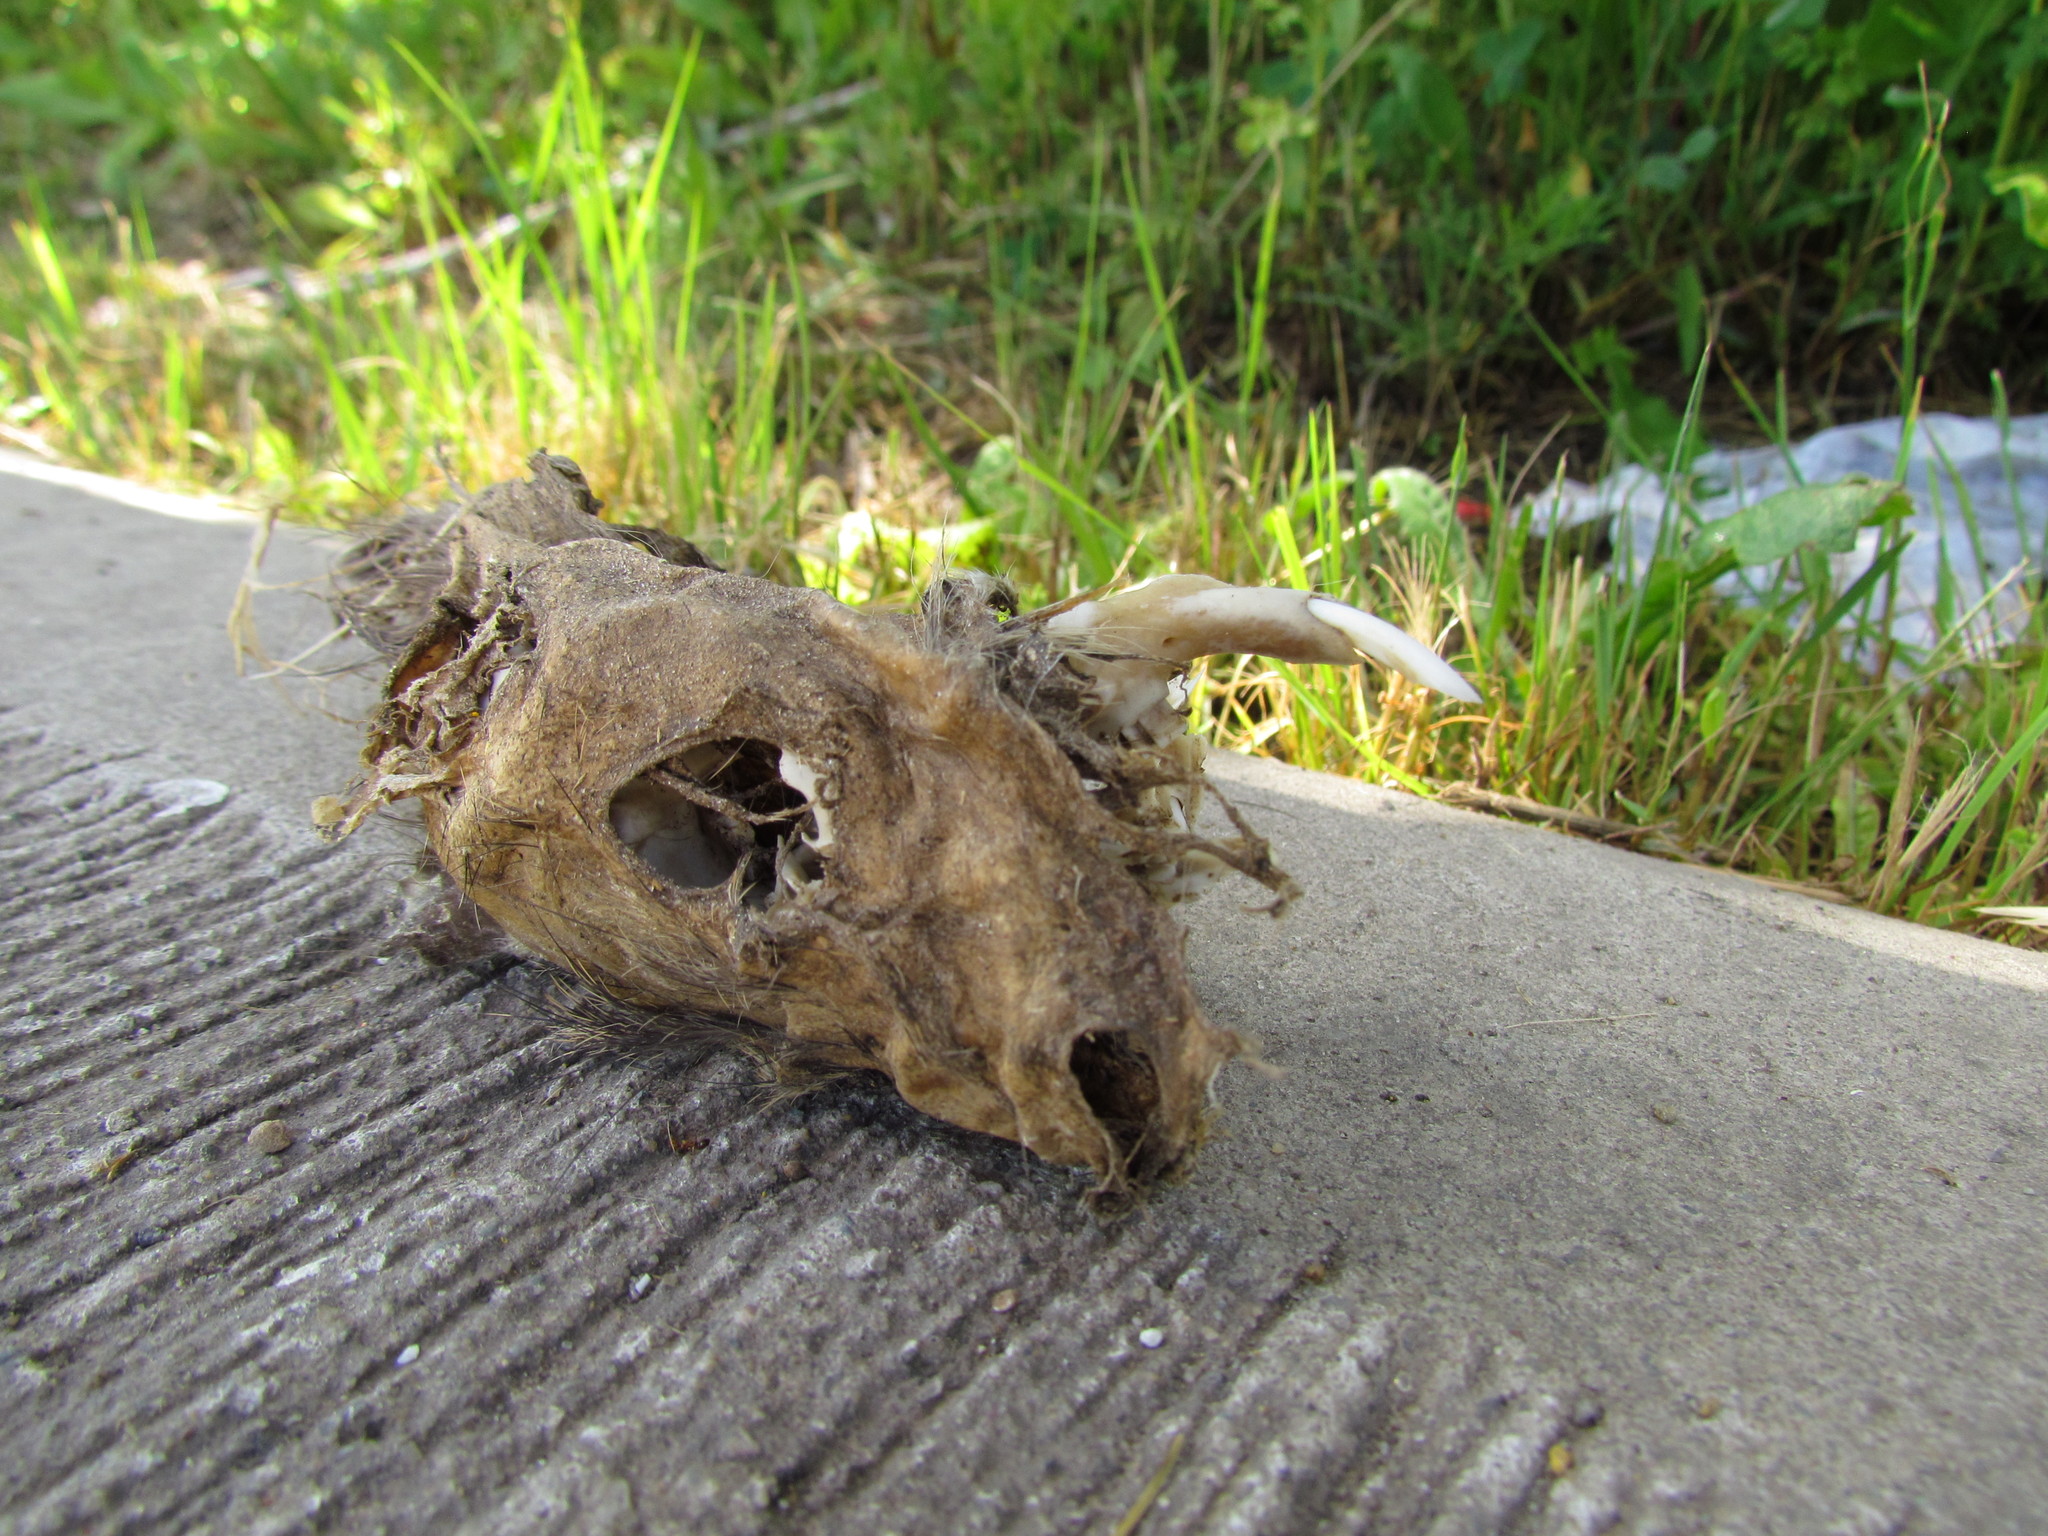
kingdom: Animalia
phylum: Chordata
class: Mammalia
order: Rodentia
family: Caviidae
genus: Cavia
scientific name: Cavia aperea
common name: Brazilian guinea pig
